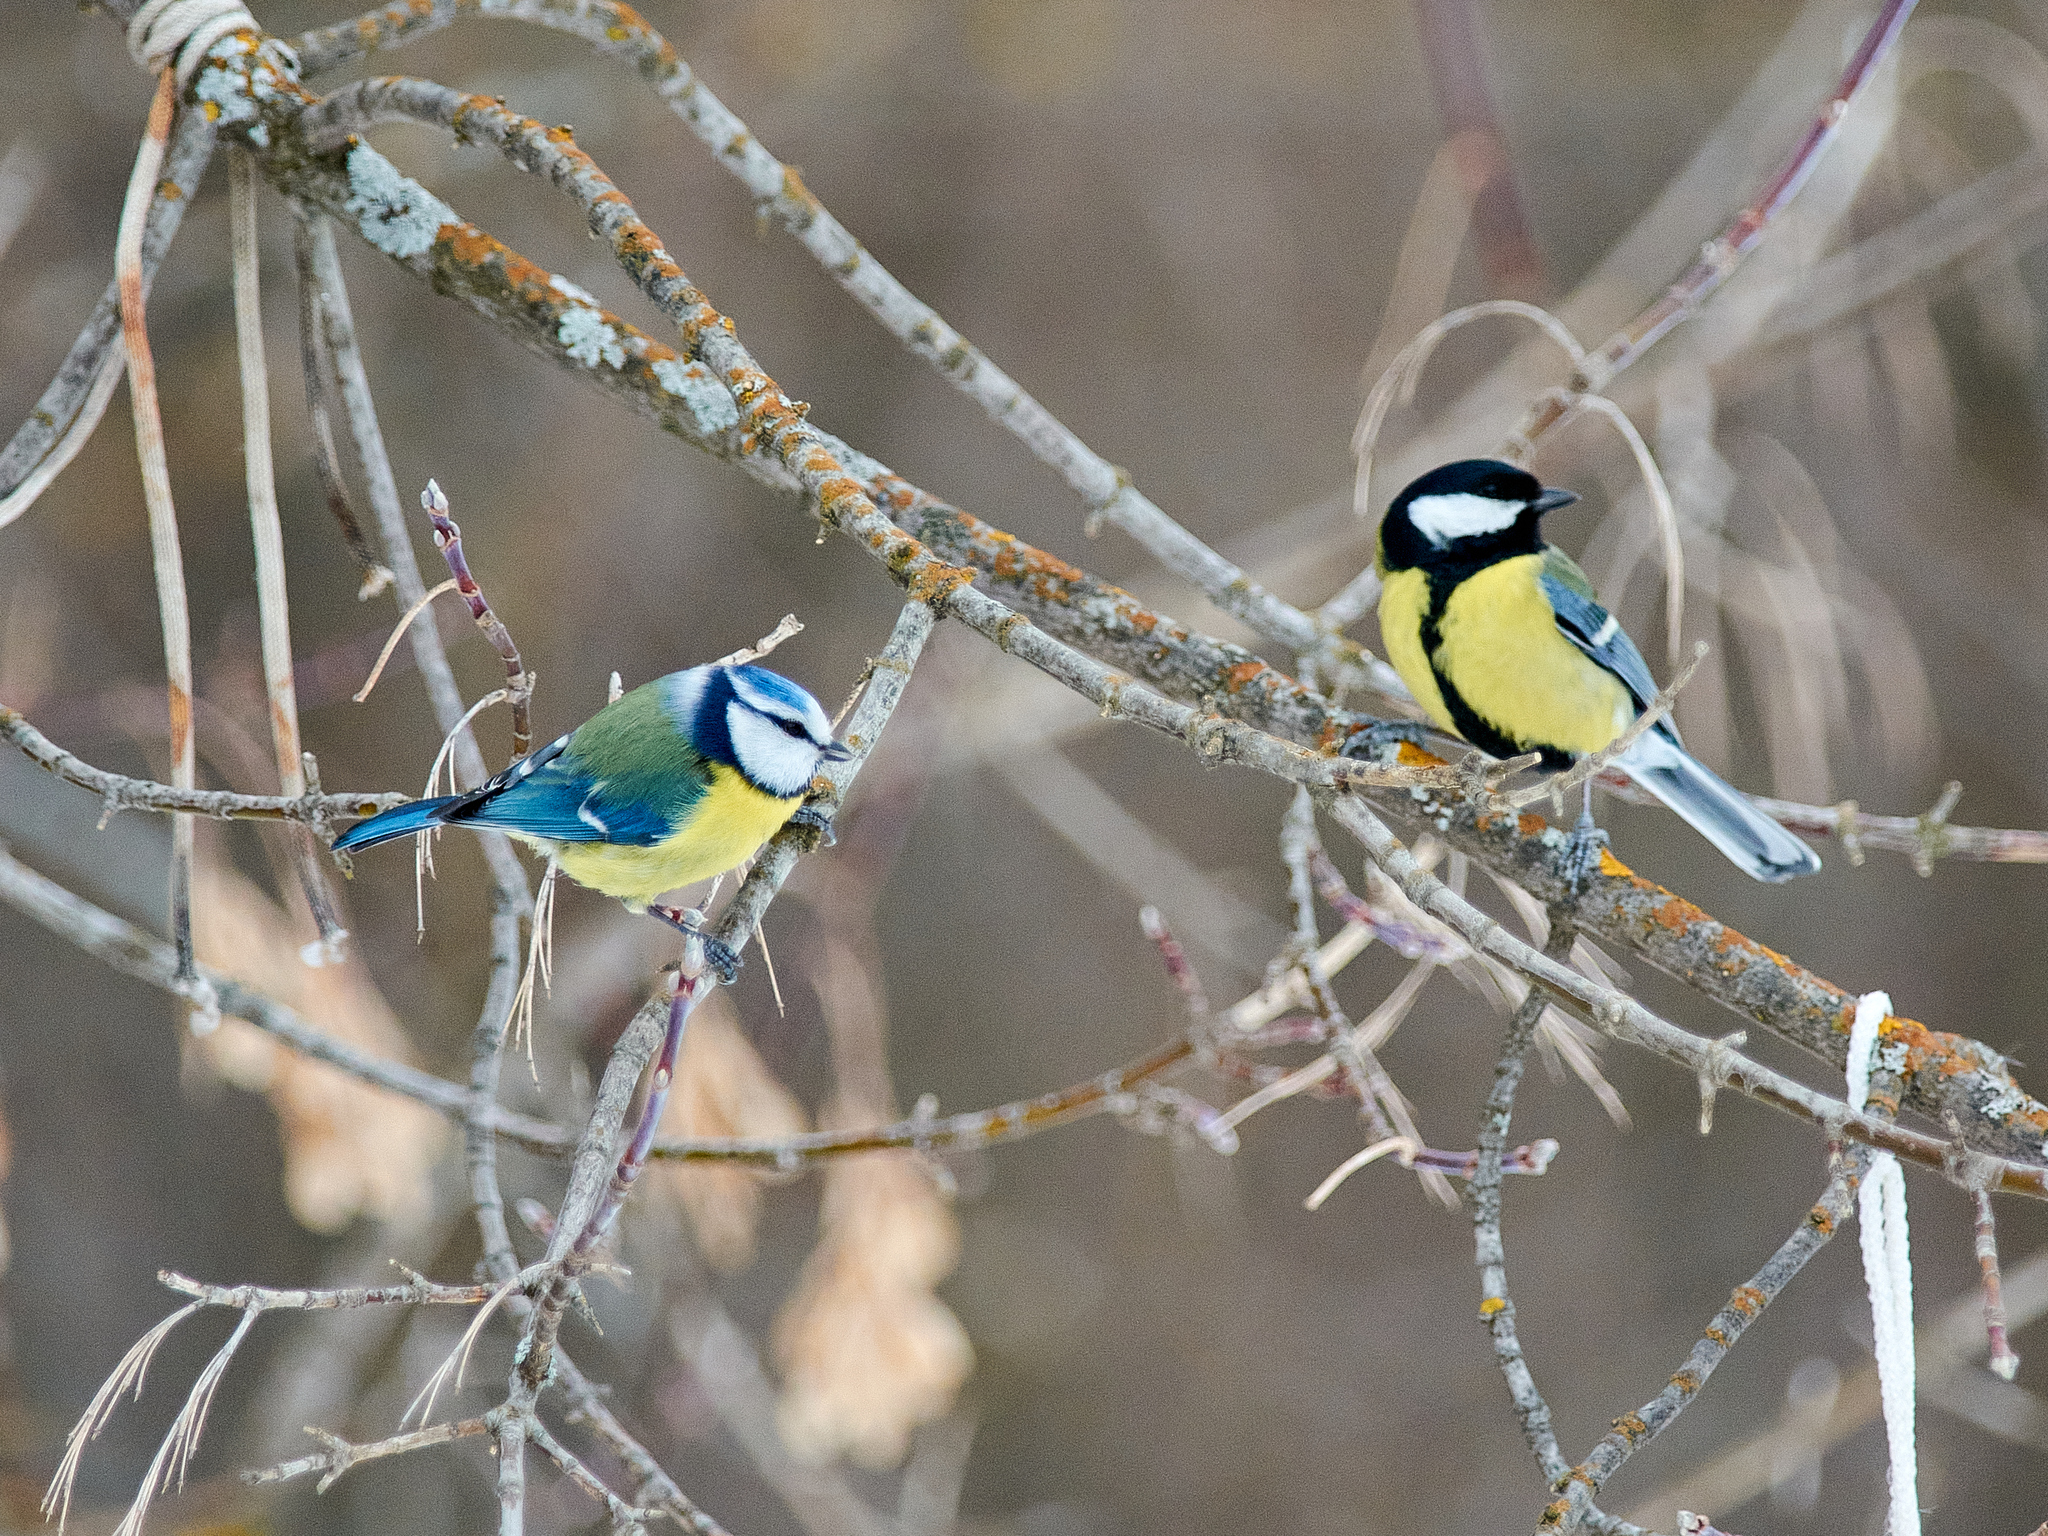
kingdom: Animalia
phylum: Chordata
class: Aves
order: Passeriformes
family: Paridae
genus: Cyanistes
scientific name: Cyanistes caeruleus
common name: Eurasian blue tit
